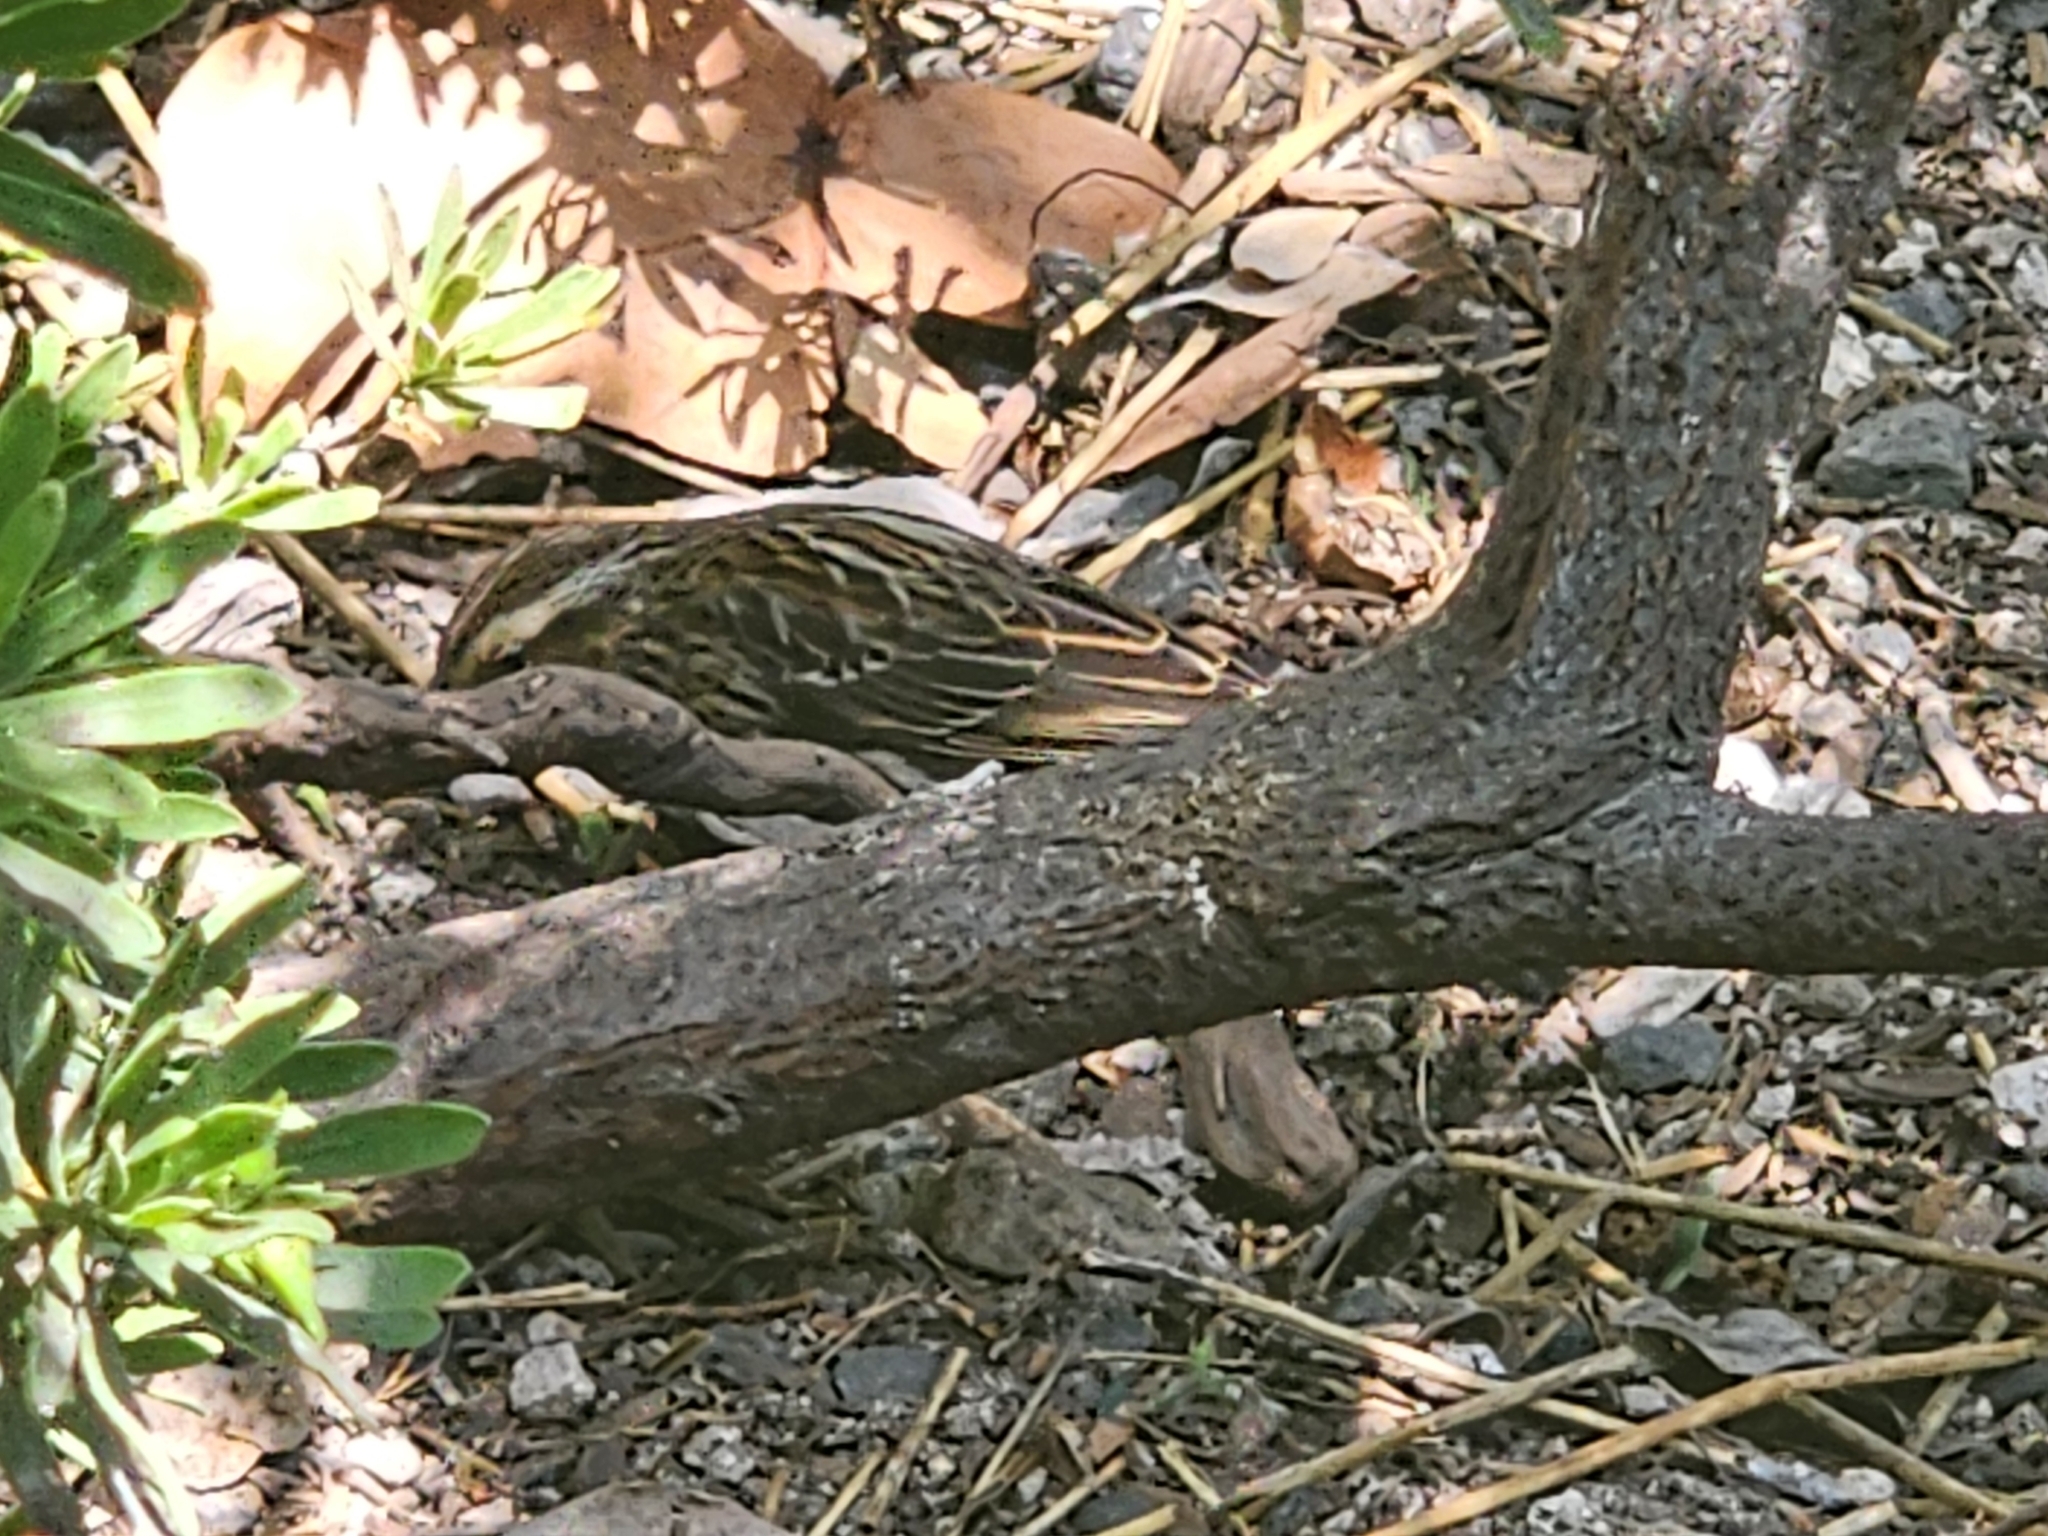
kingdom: Animalia
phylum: Chordata
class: Aves
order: Passeriformes
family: Icteridae
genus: Agelaius
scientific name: Agelaius phoeniceus
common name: Red-winged blackbird
